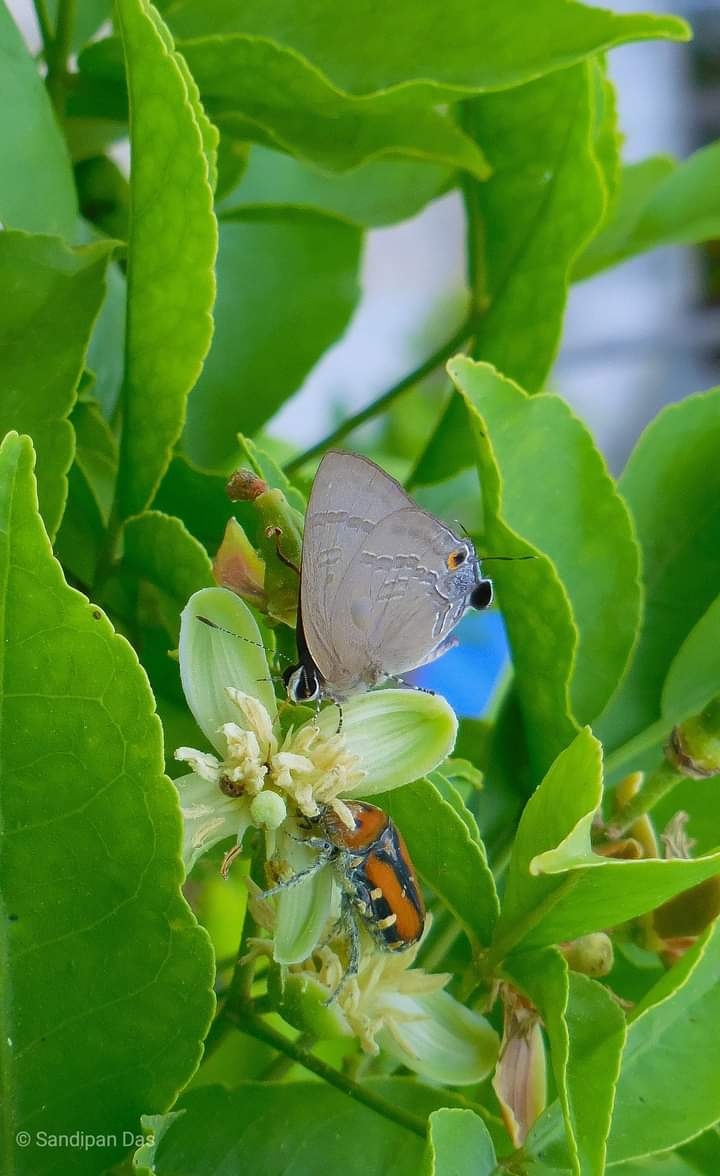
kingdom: Animalia
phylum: Arthropoda
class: Insecta
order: Lepidoptera
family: Lycaenidae
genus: Rapala
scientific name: Rapala varuna
